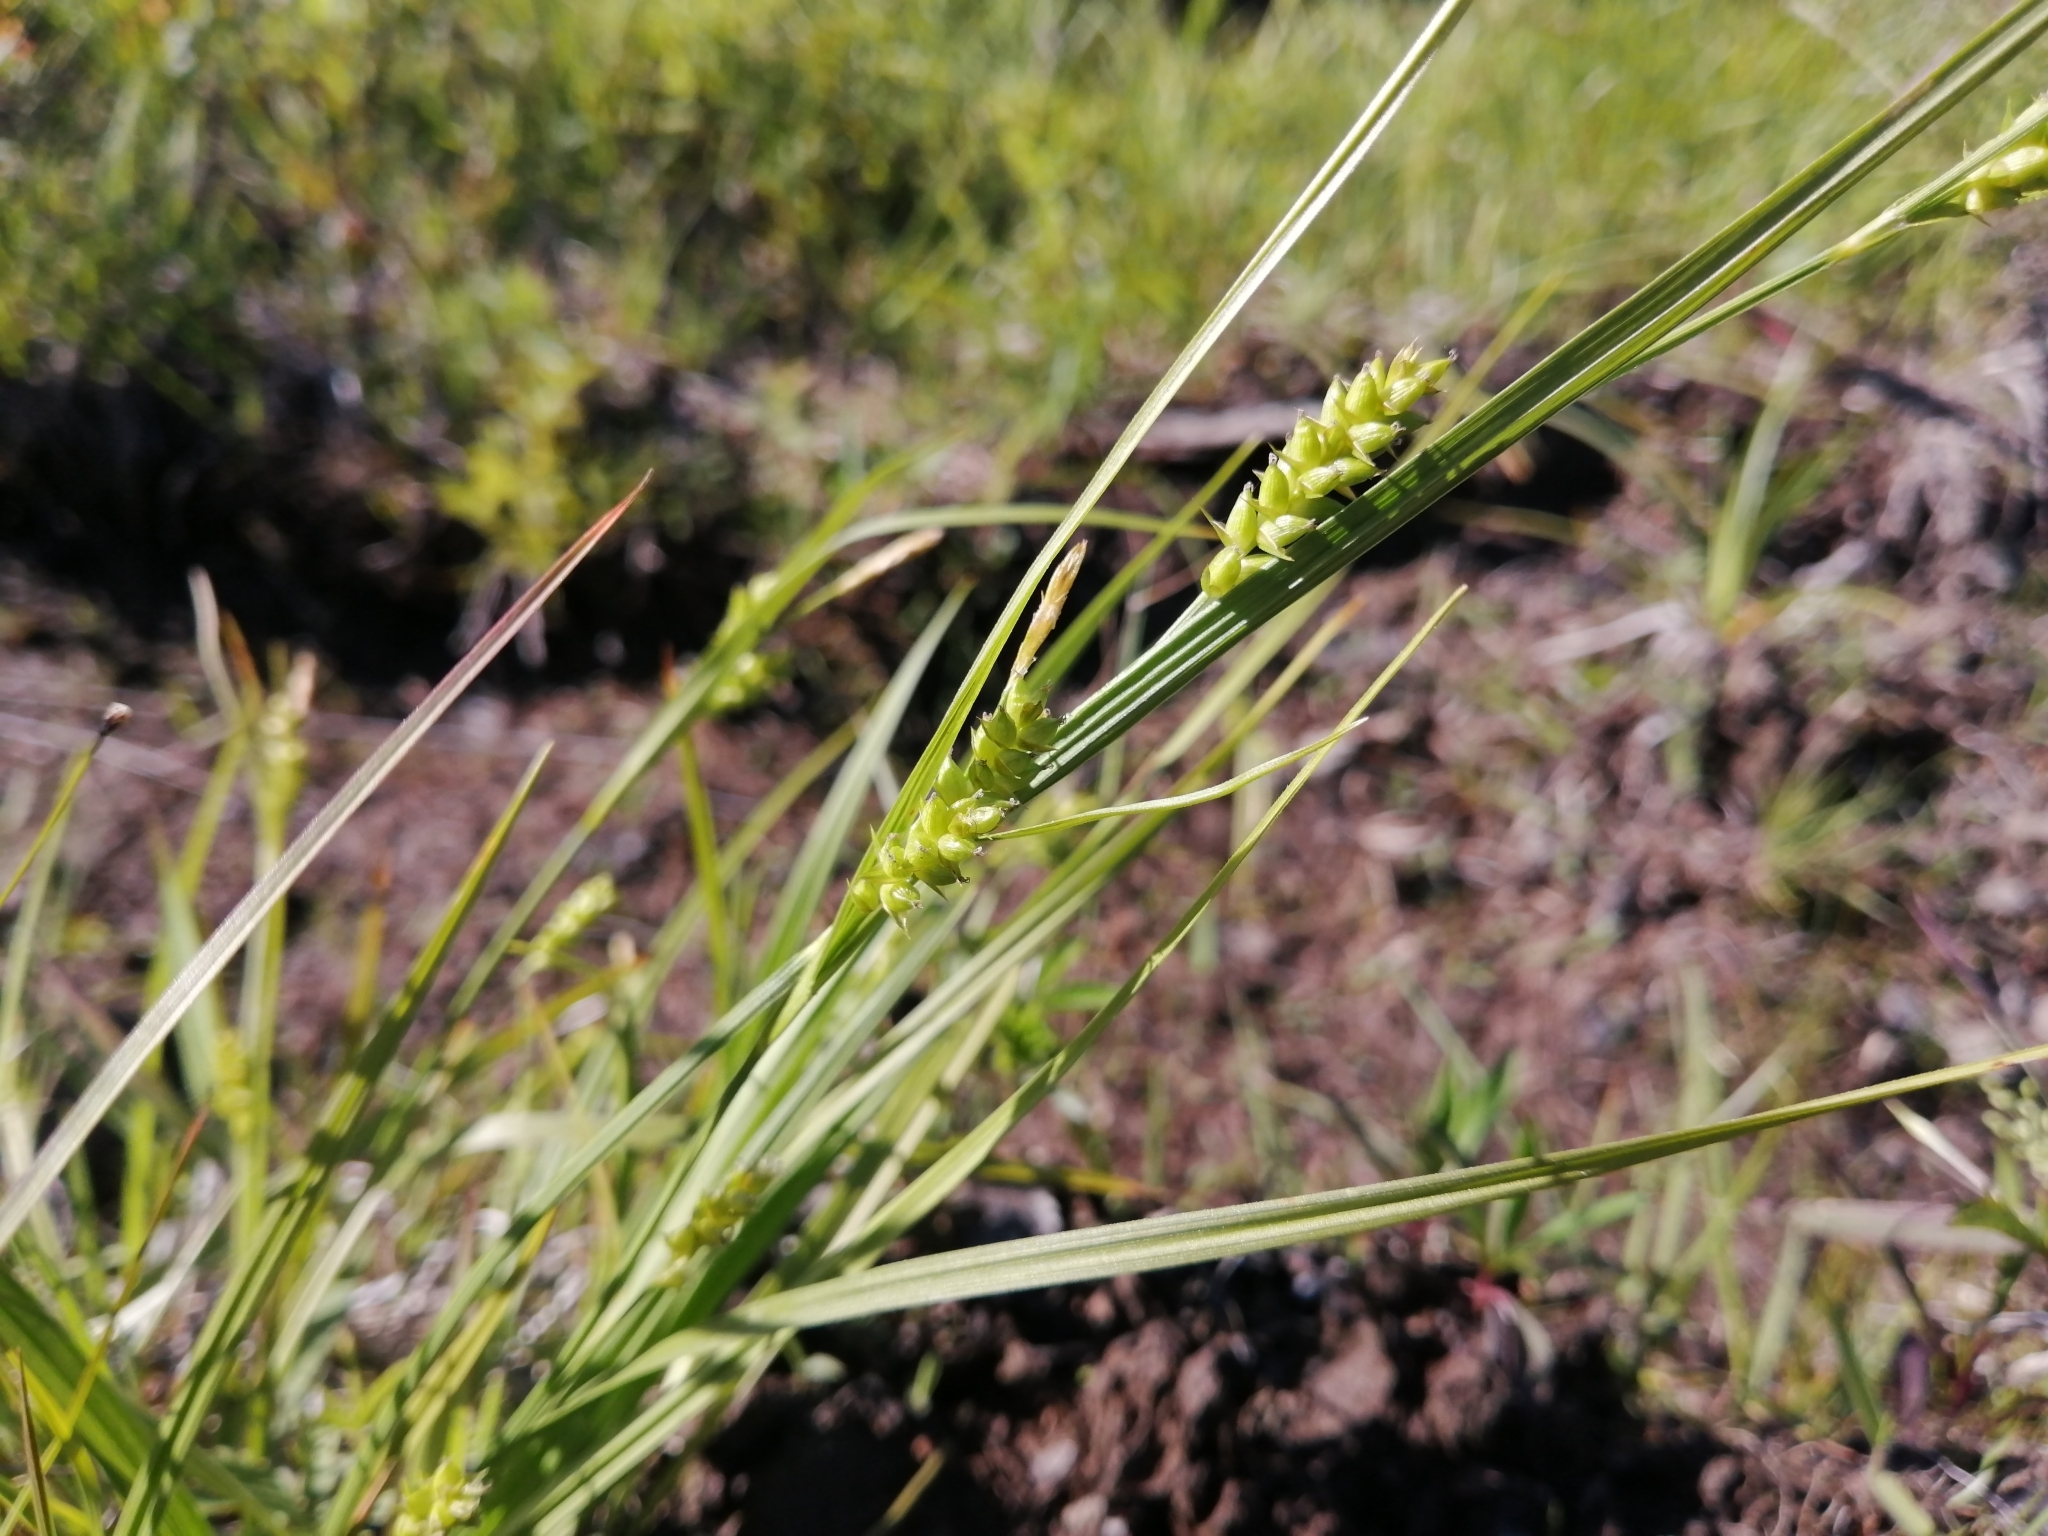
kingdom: Plantae
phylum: Tracheophyta
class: Liliopsida
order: Poales
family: Cyperaceae
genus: Carex
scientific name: Carex conoidea
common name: Cone shaped sedge
